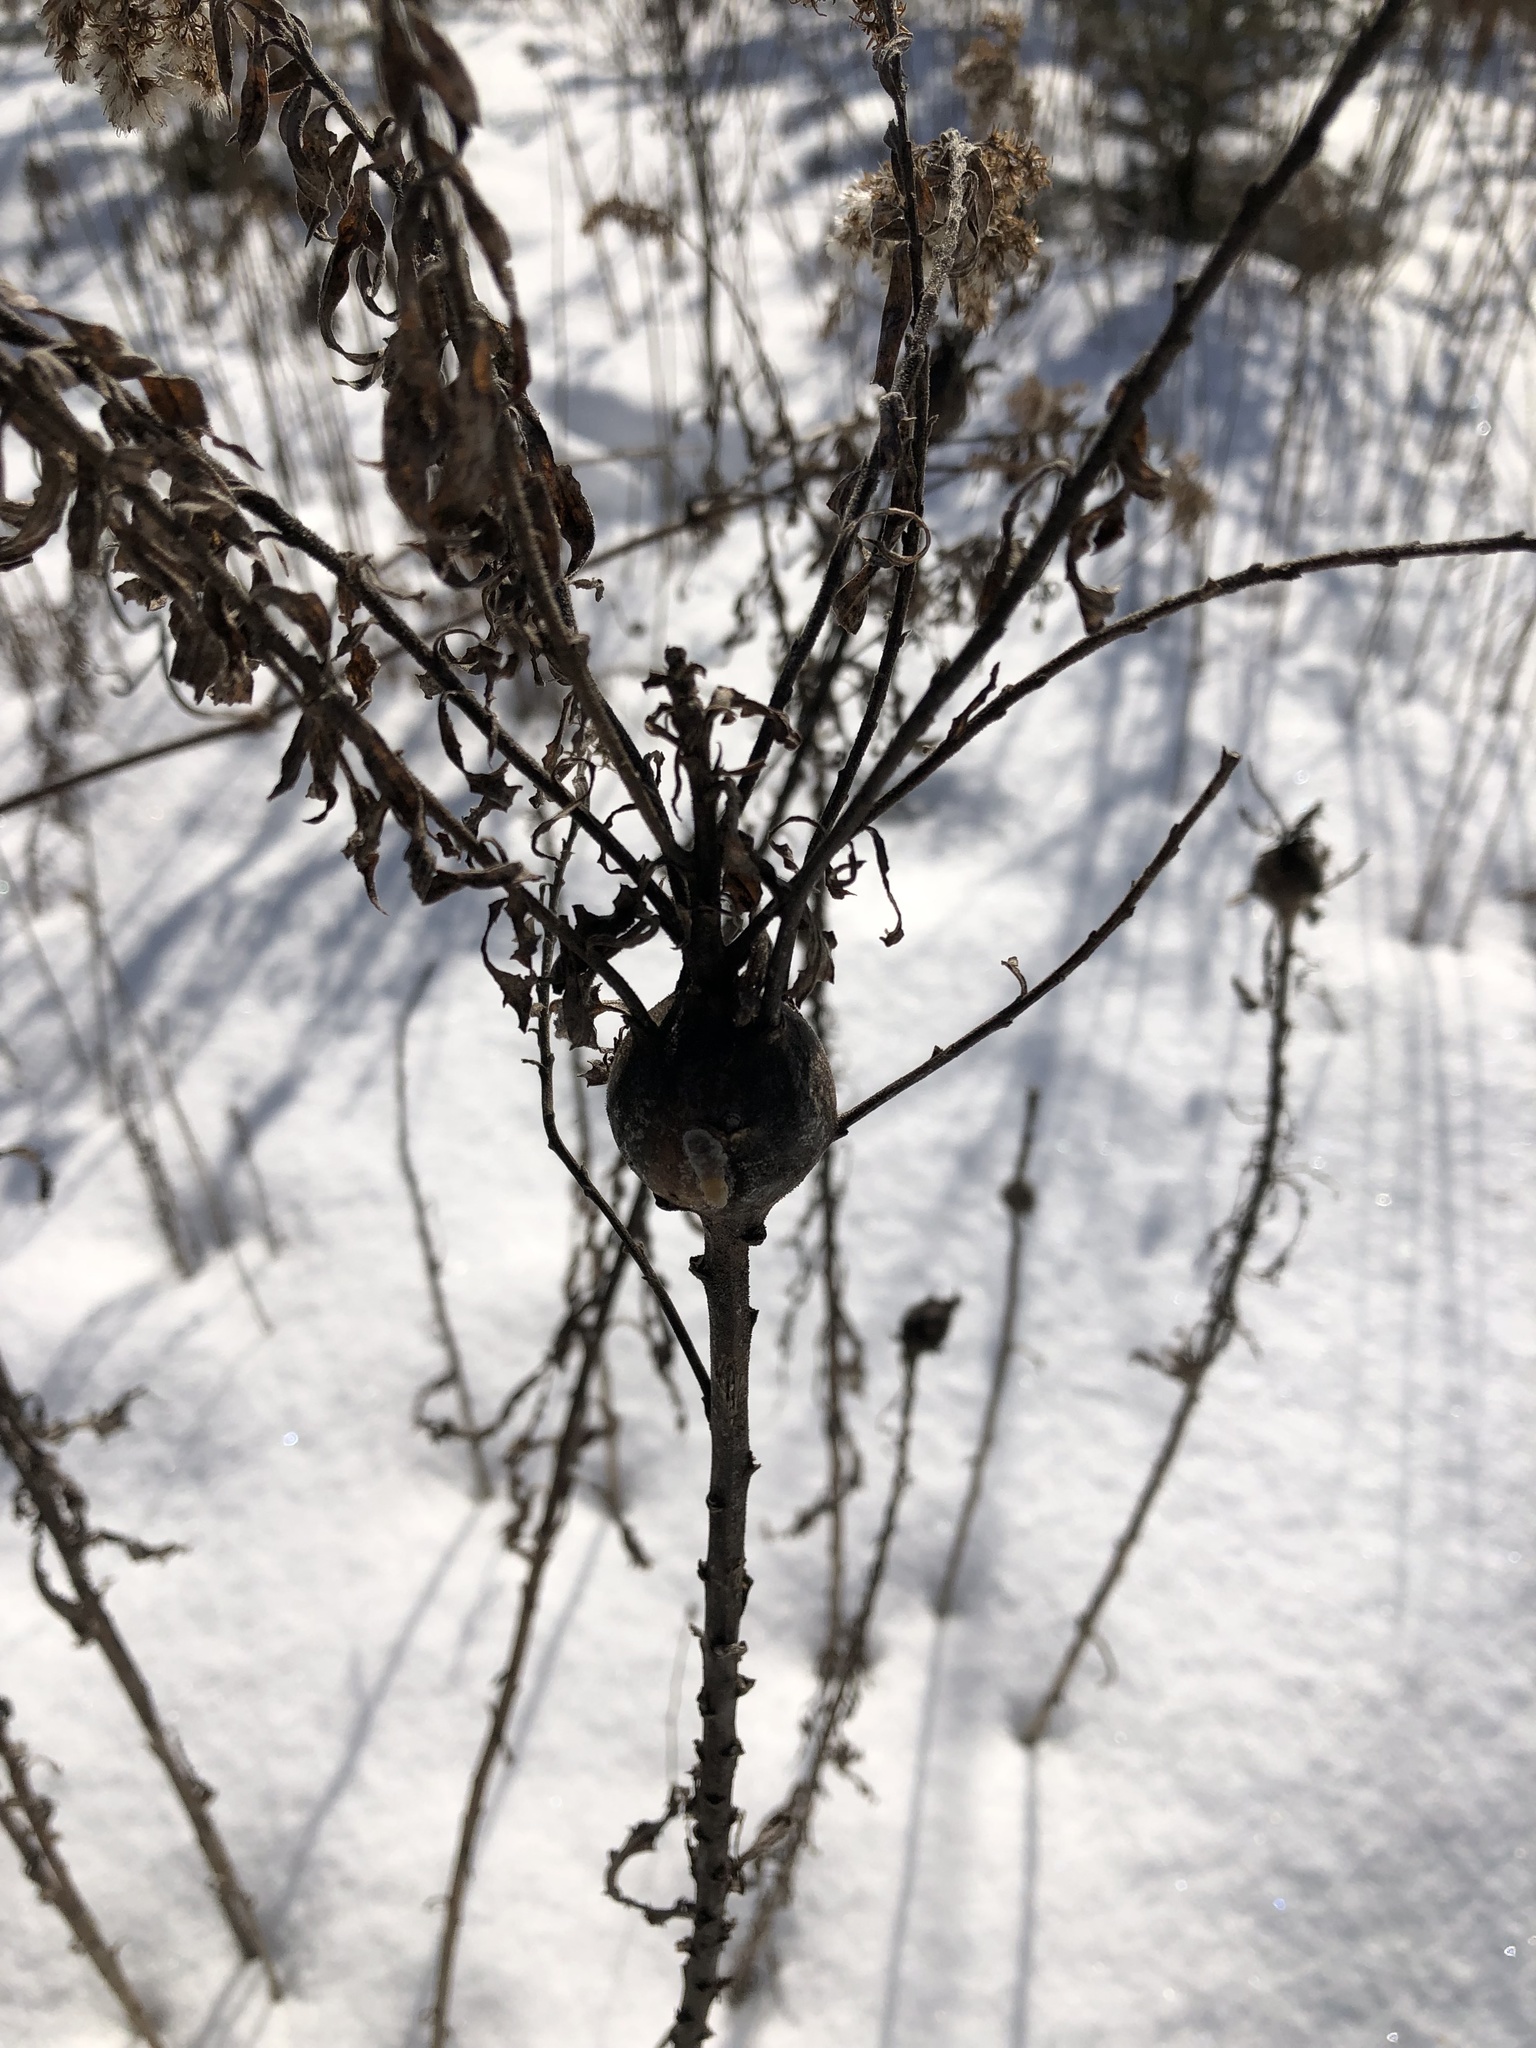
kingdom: Animalia
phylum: Arthropoda
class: Insecta
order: Diptera
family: Tephritidae
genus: Eurosta
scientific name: Eurosta solidaginis
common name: Goldenrod gall fly
